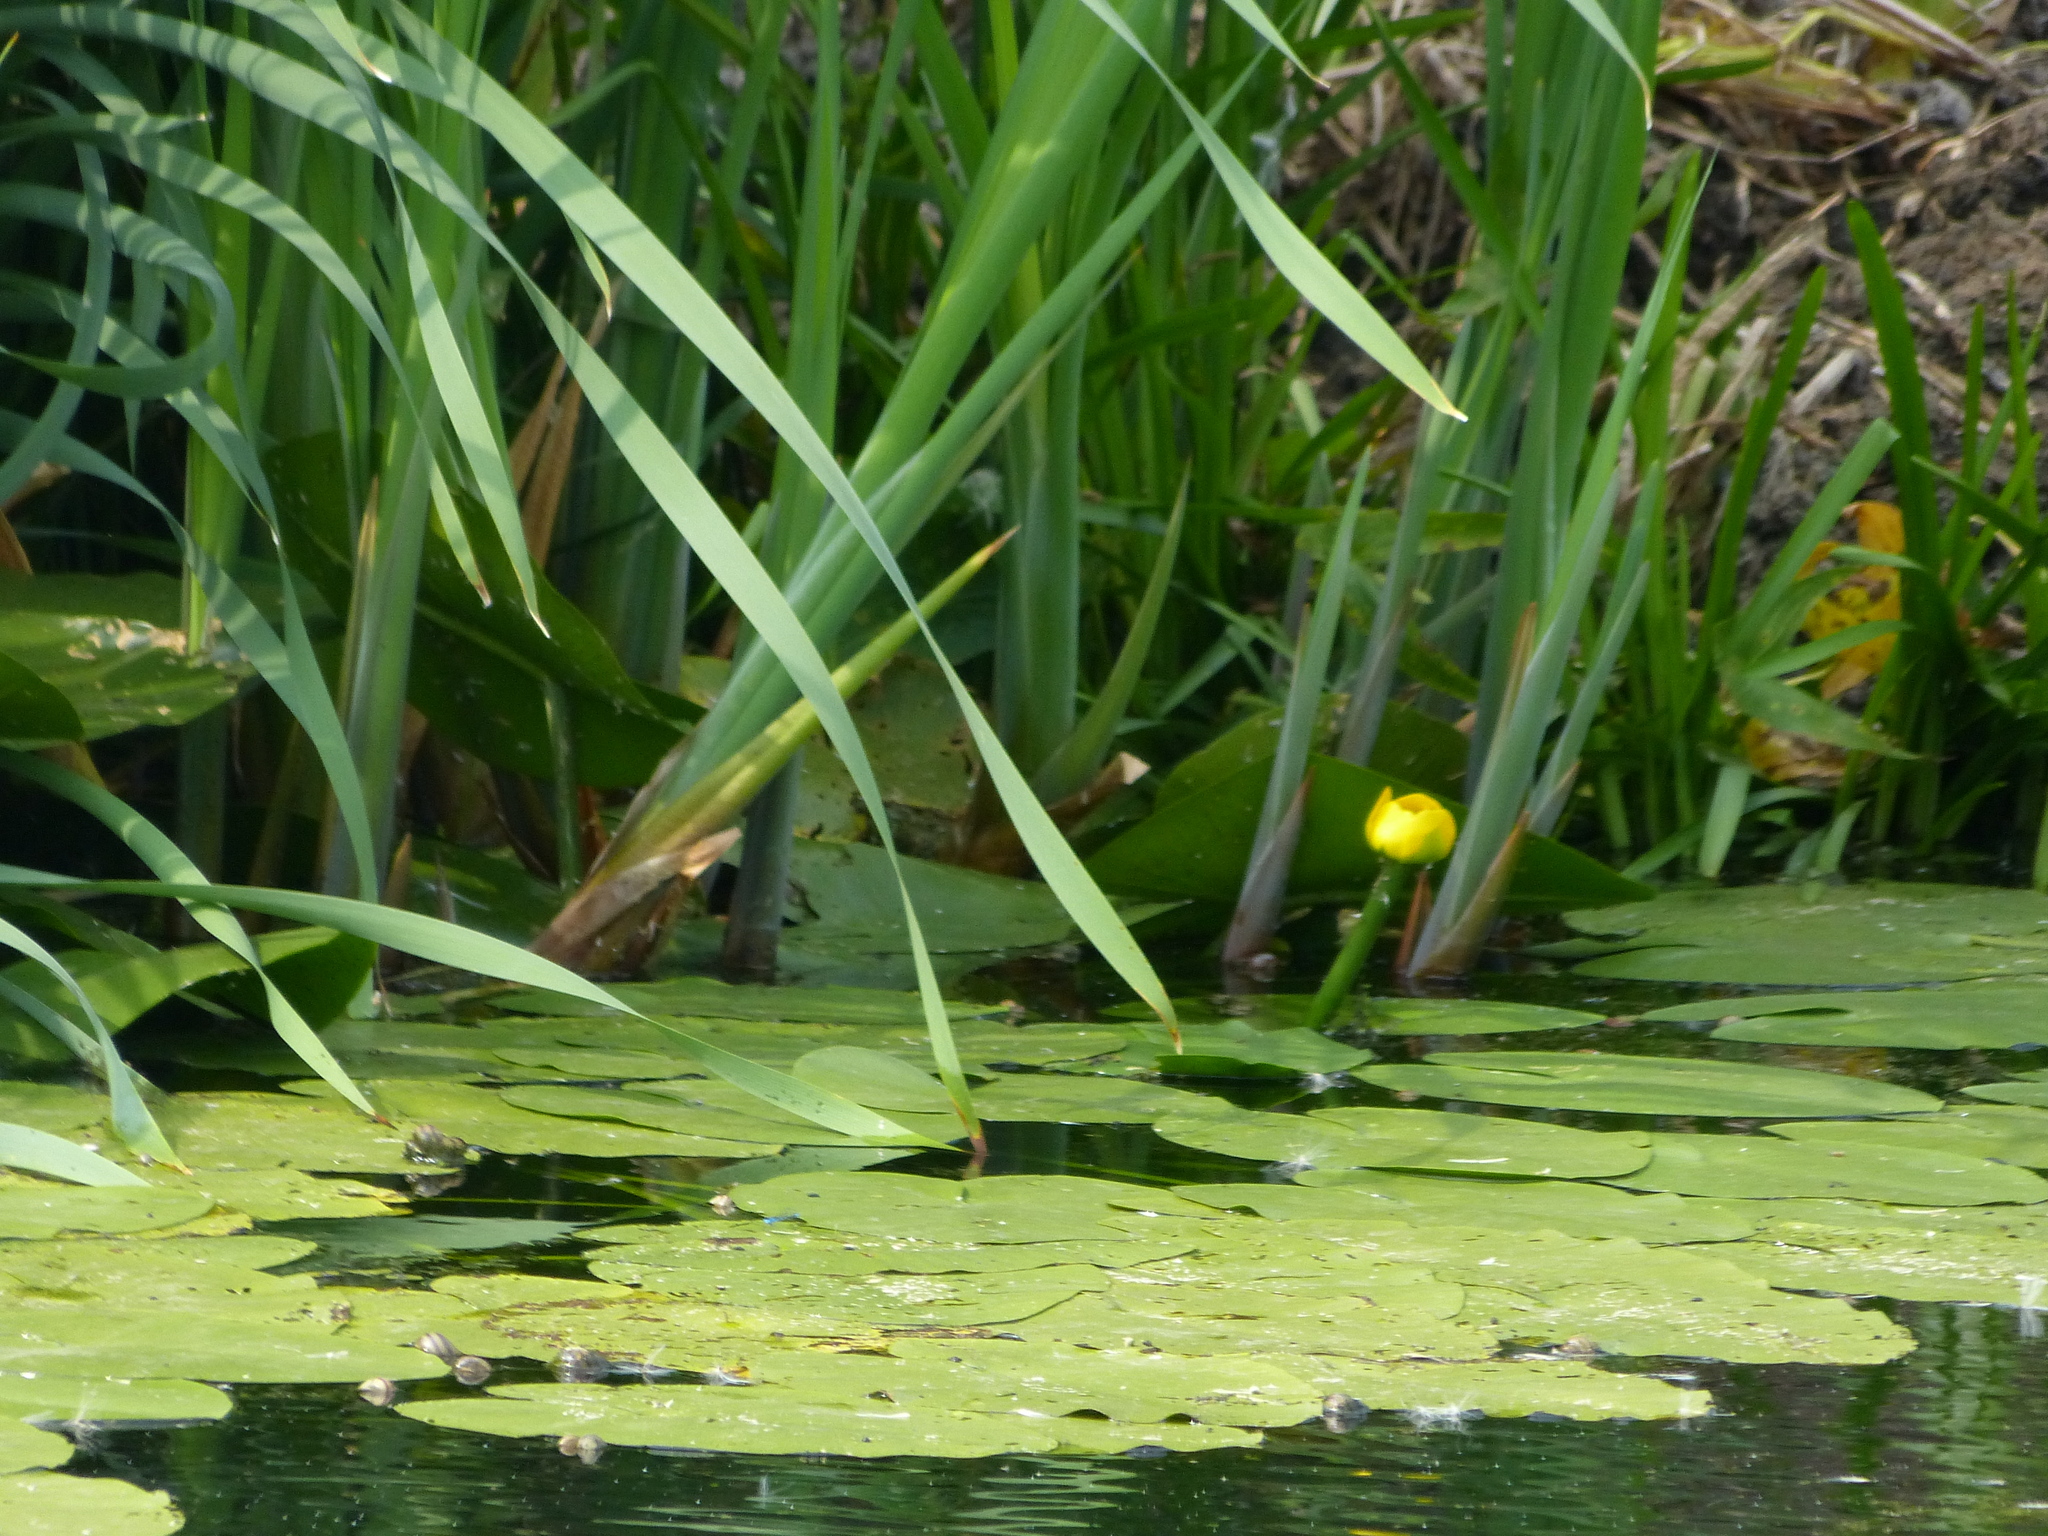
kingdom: Plantae
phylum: Tracheophyta
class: Magnoliopsida
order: Nymphaeales
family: Nymphaeaceae
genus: Nuphar
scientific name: Nuphar lutea
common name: Yellow water-lily
